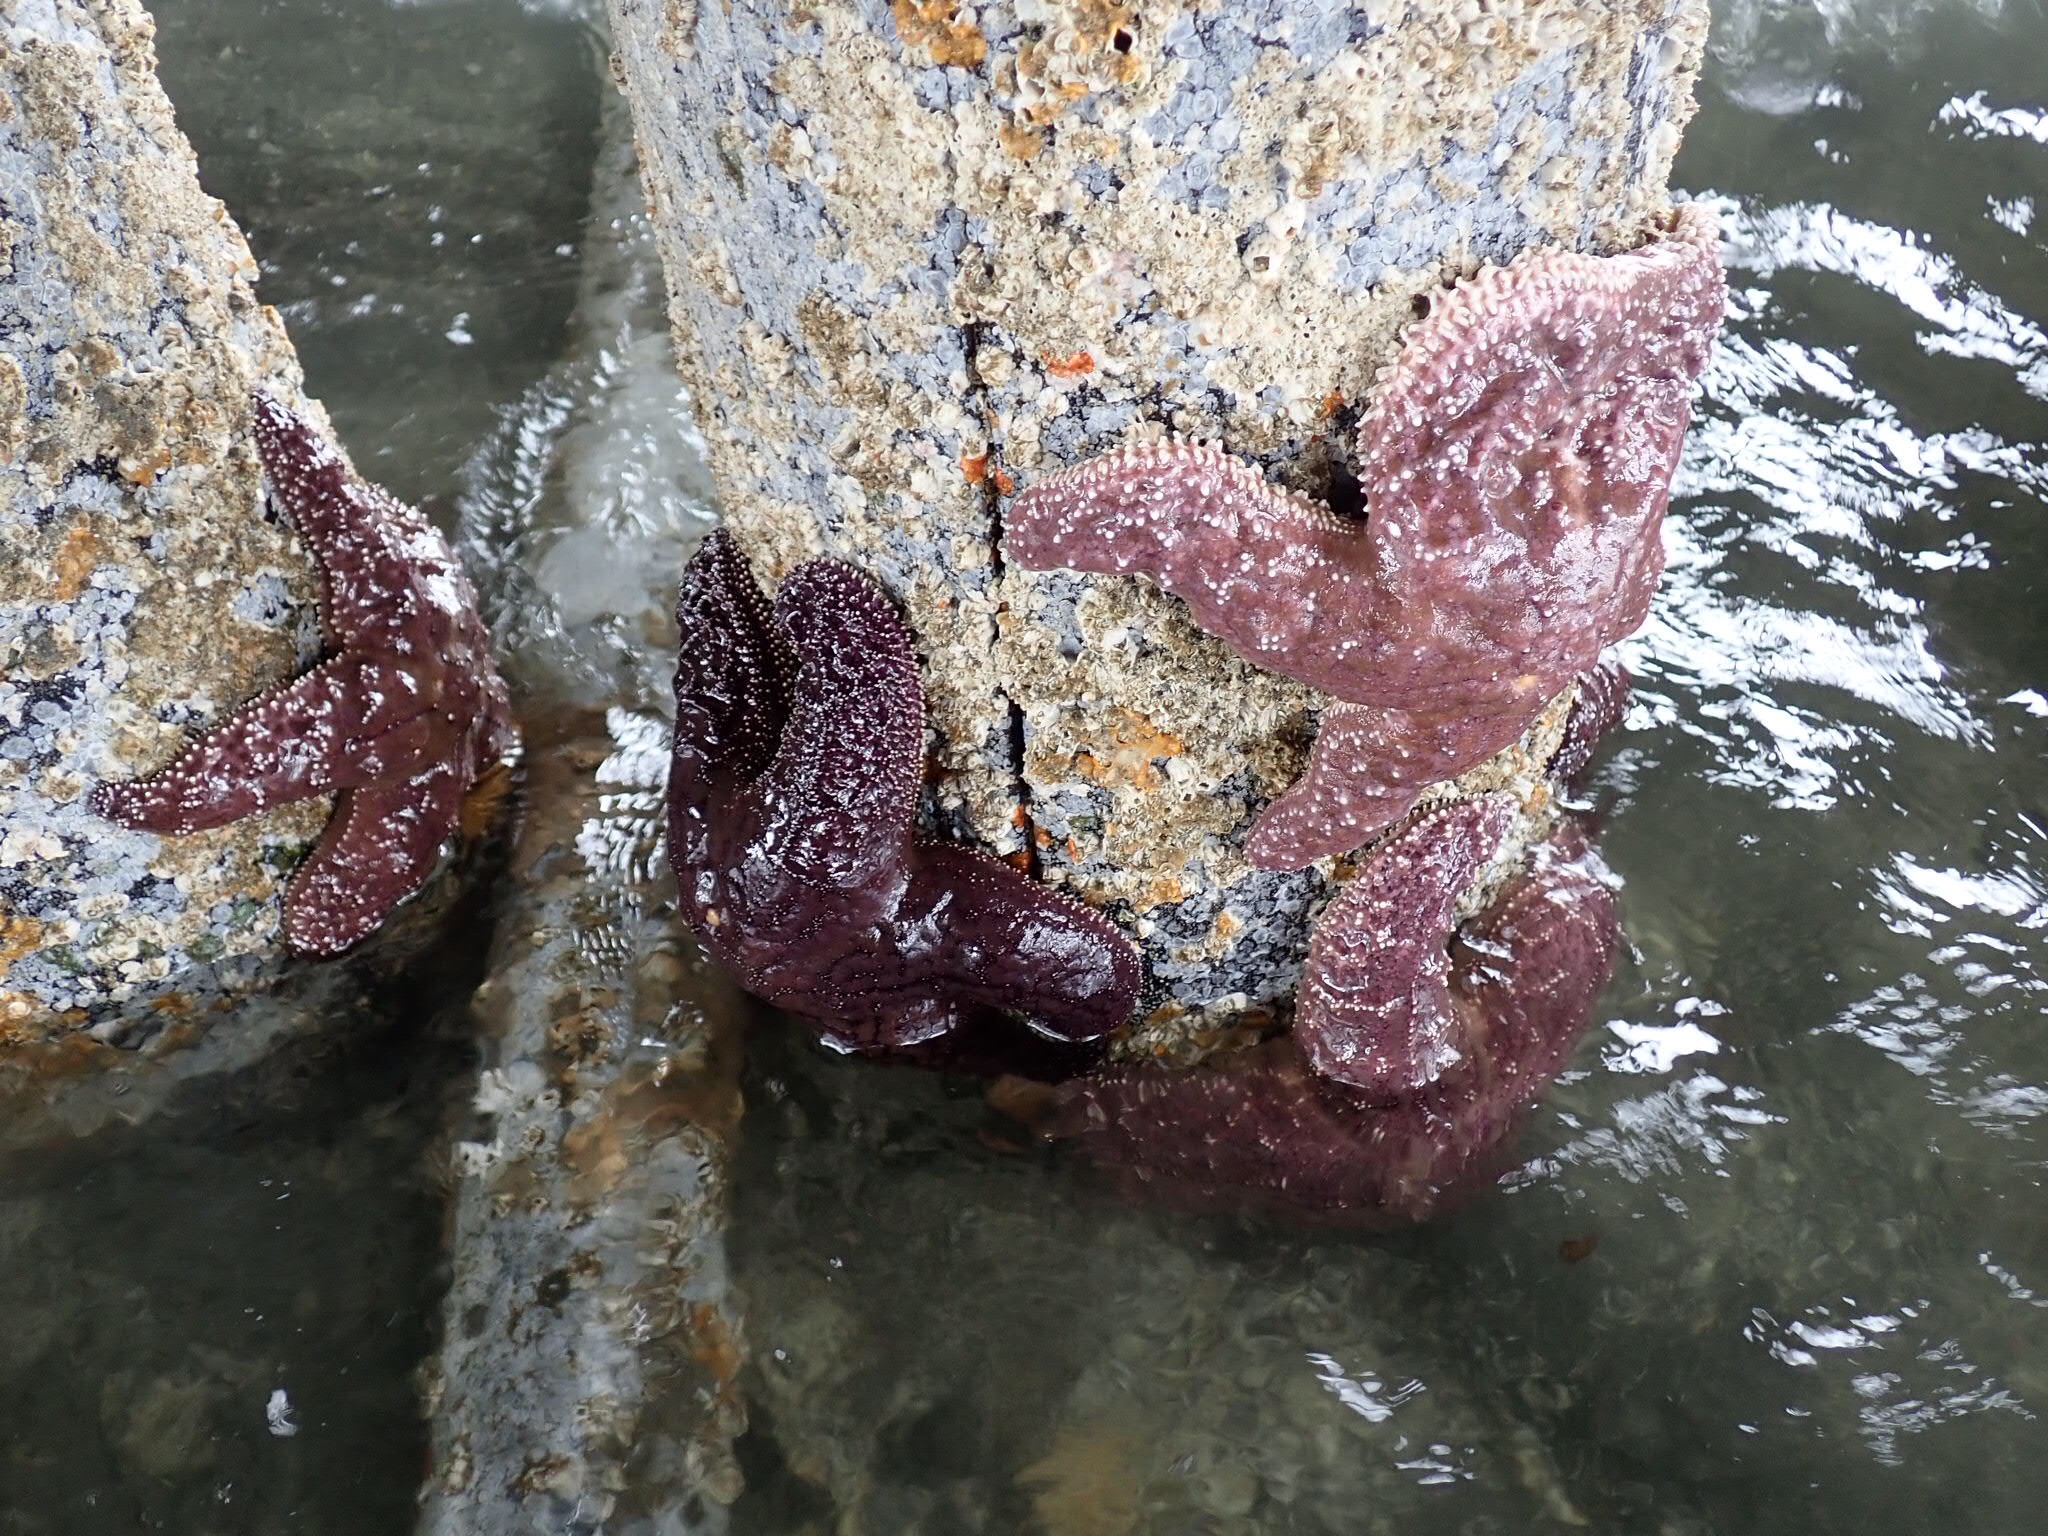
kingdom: Animalia
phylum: Echinodermata
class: Asteroidea
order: Forcipulatida
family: Asteriidae
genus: Pisaster
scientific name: Pisaster ochraceus
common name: Ochre stars
